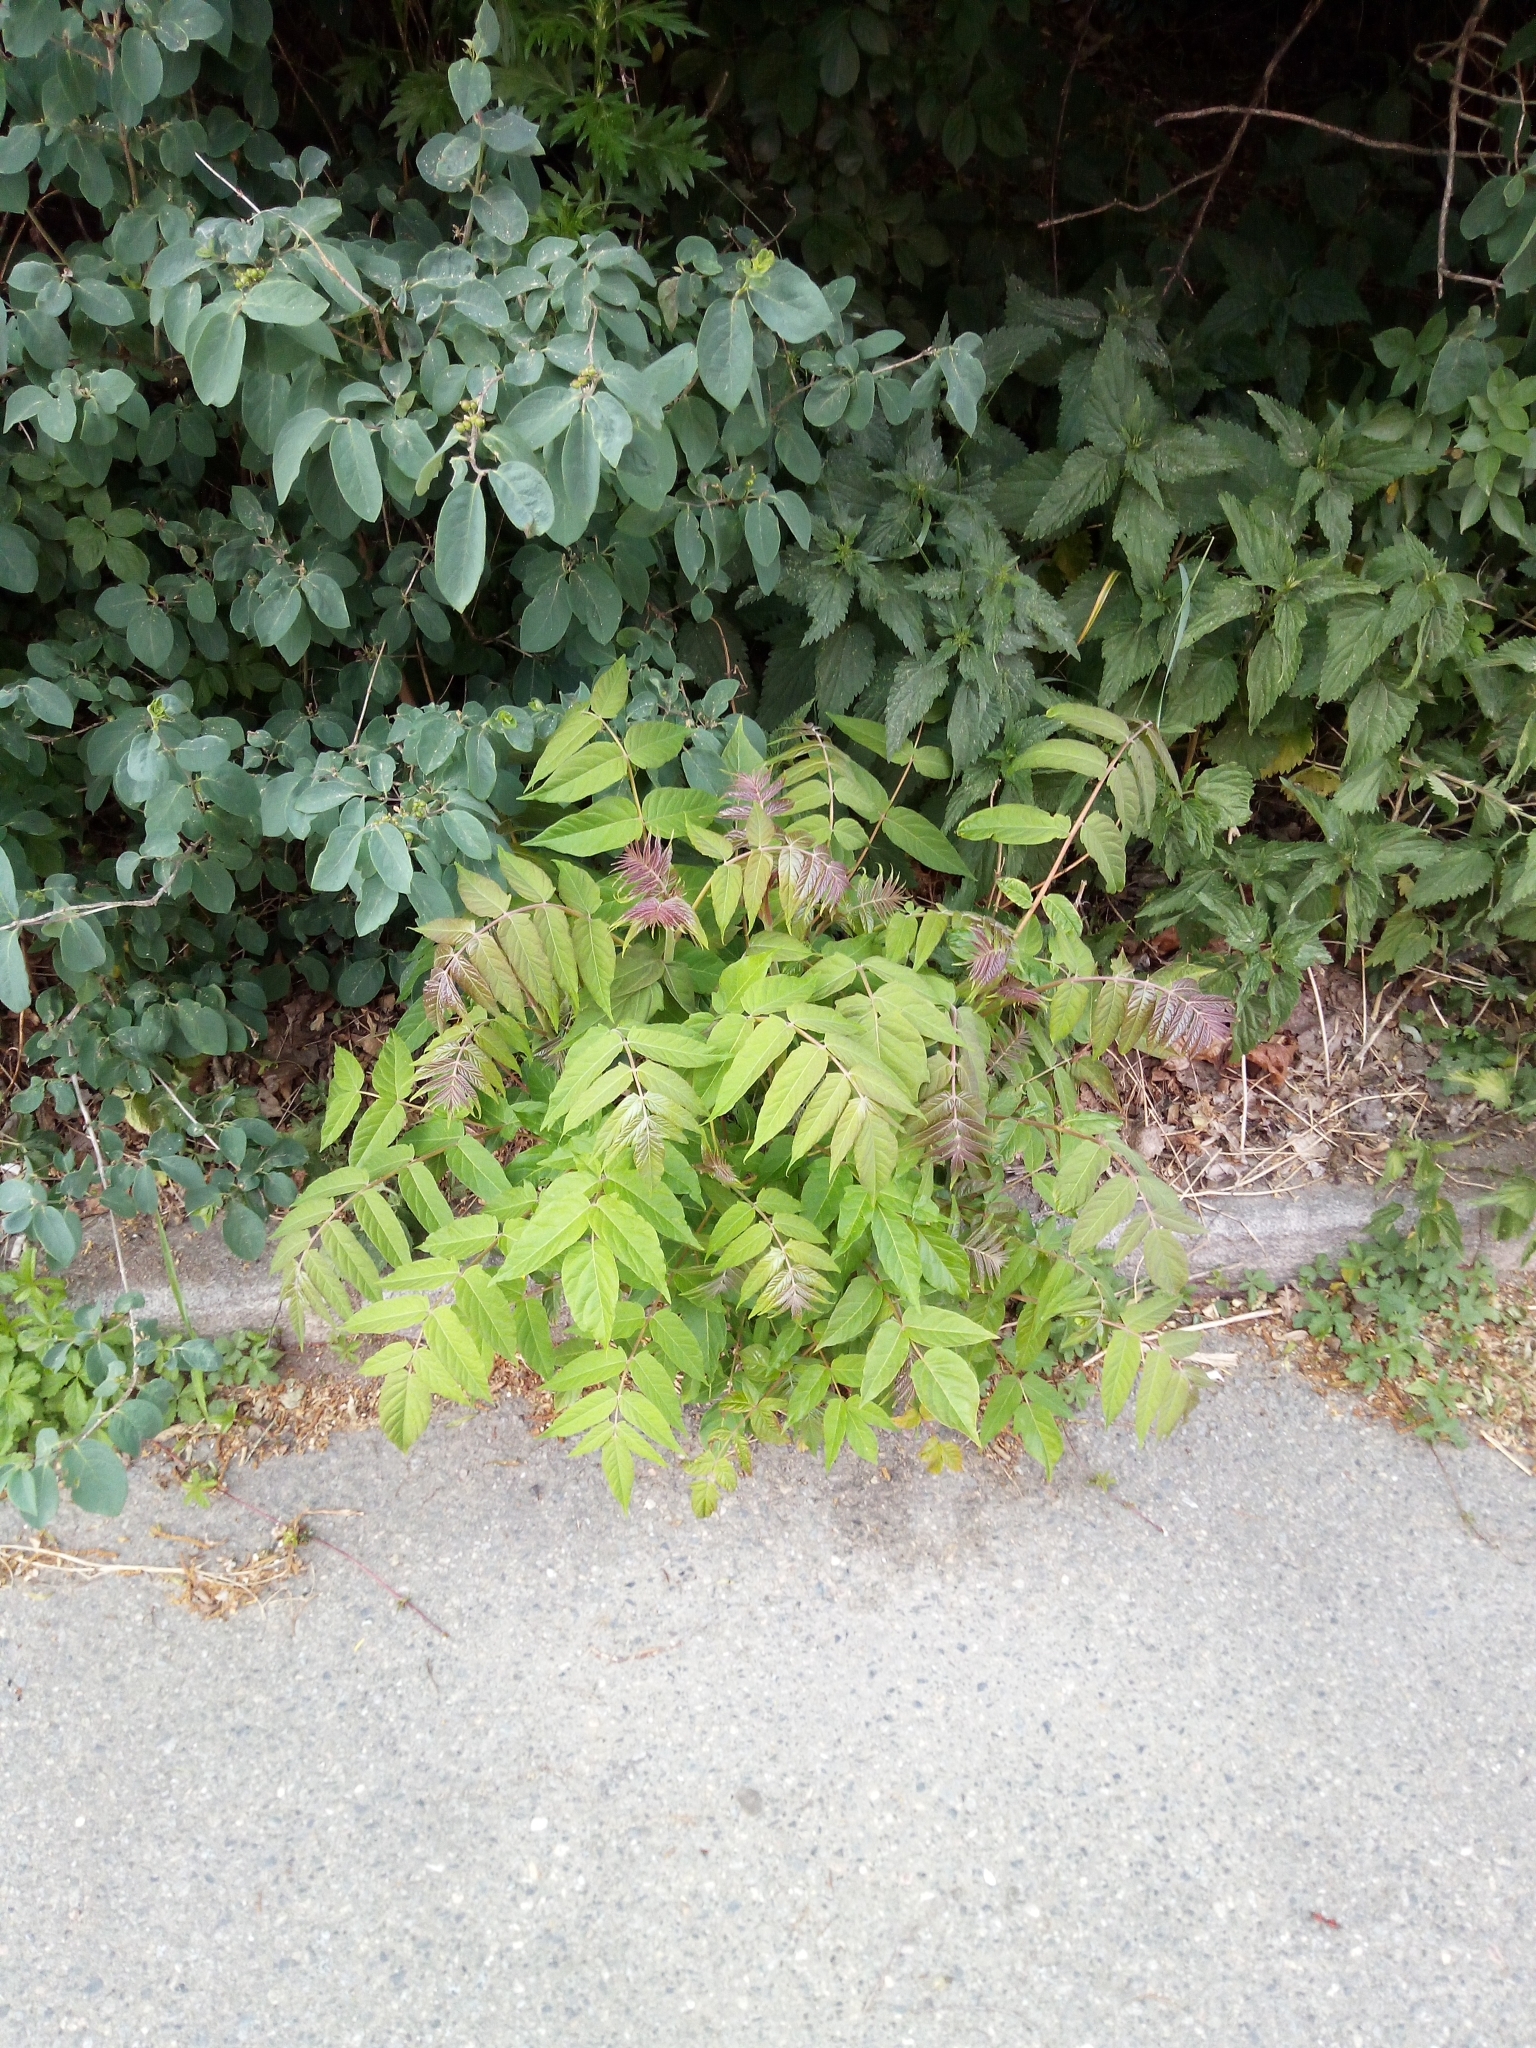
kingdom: Plantae
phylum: Tracheophyta
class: Magnoliopsida
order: Sapindales
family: Simaroubaceae
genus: Ailanthus
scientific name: Ailanthus altissima
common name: Tree-of-heaven
